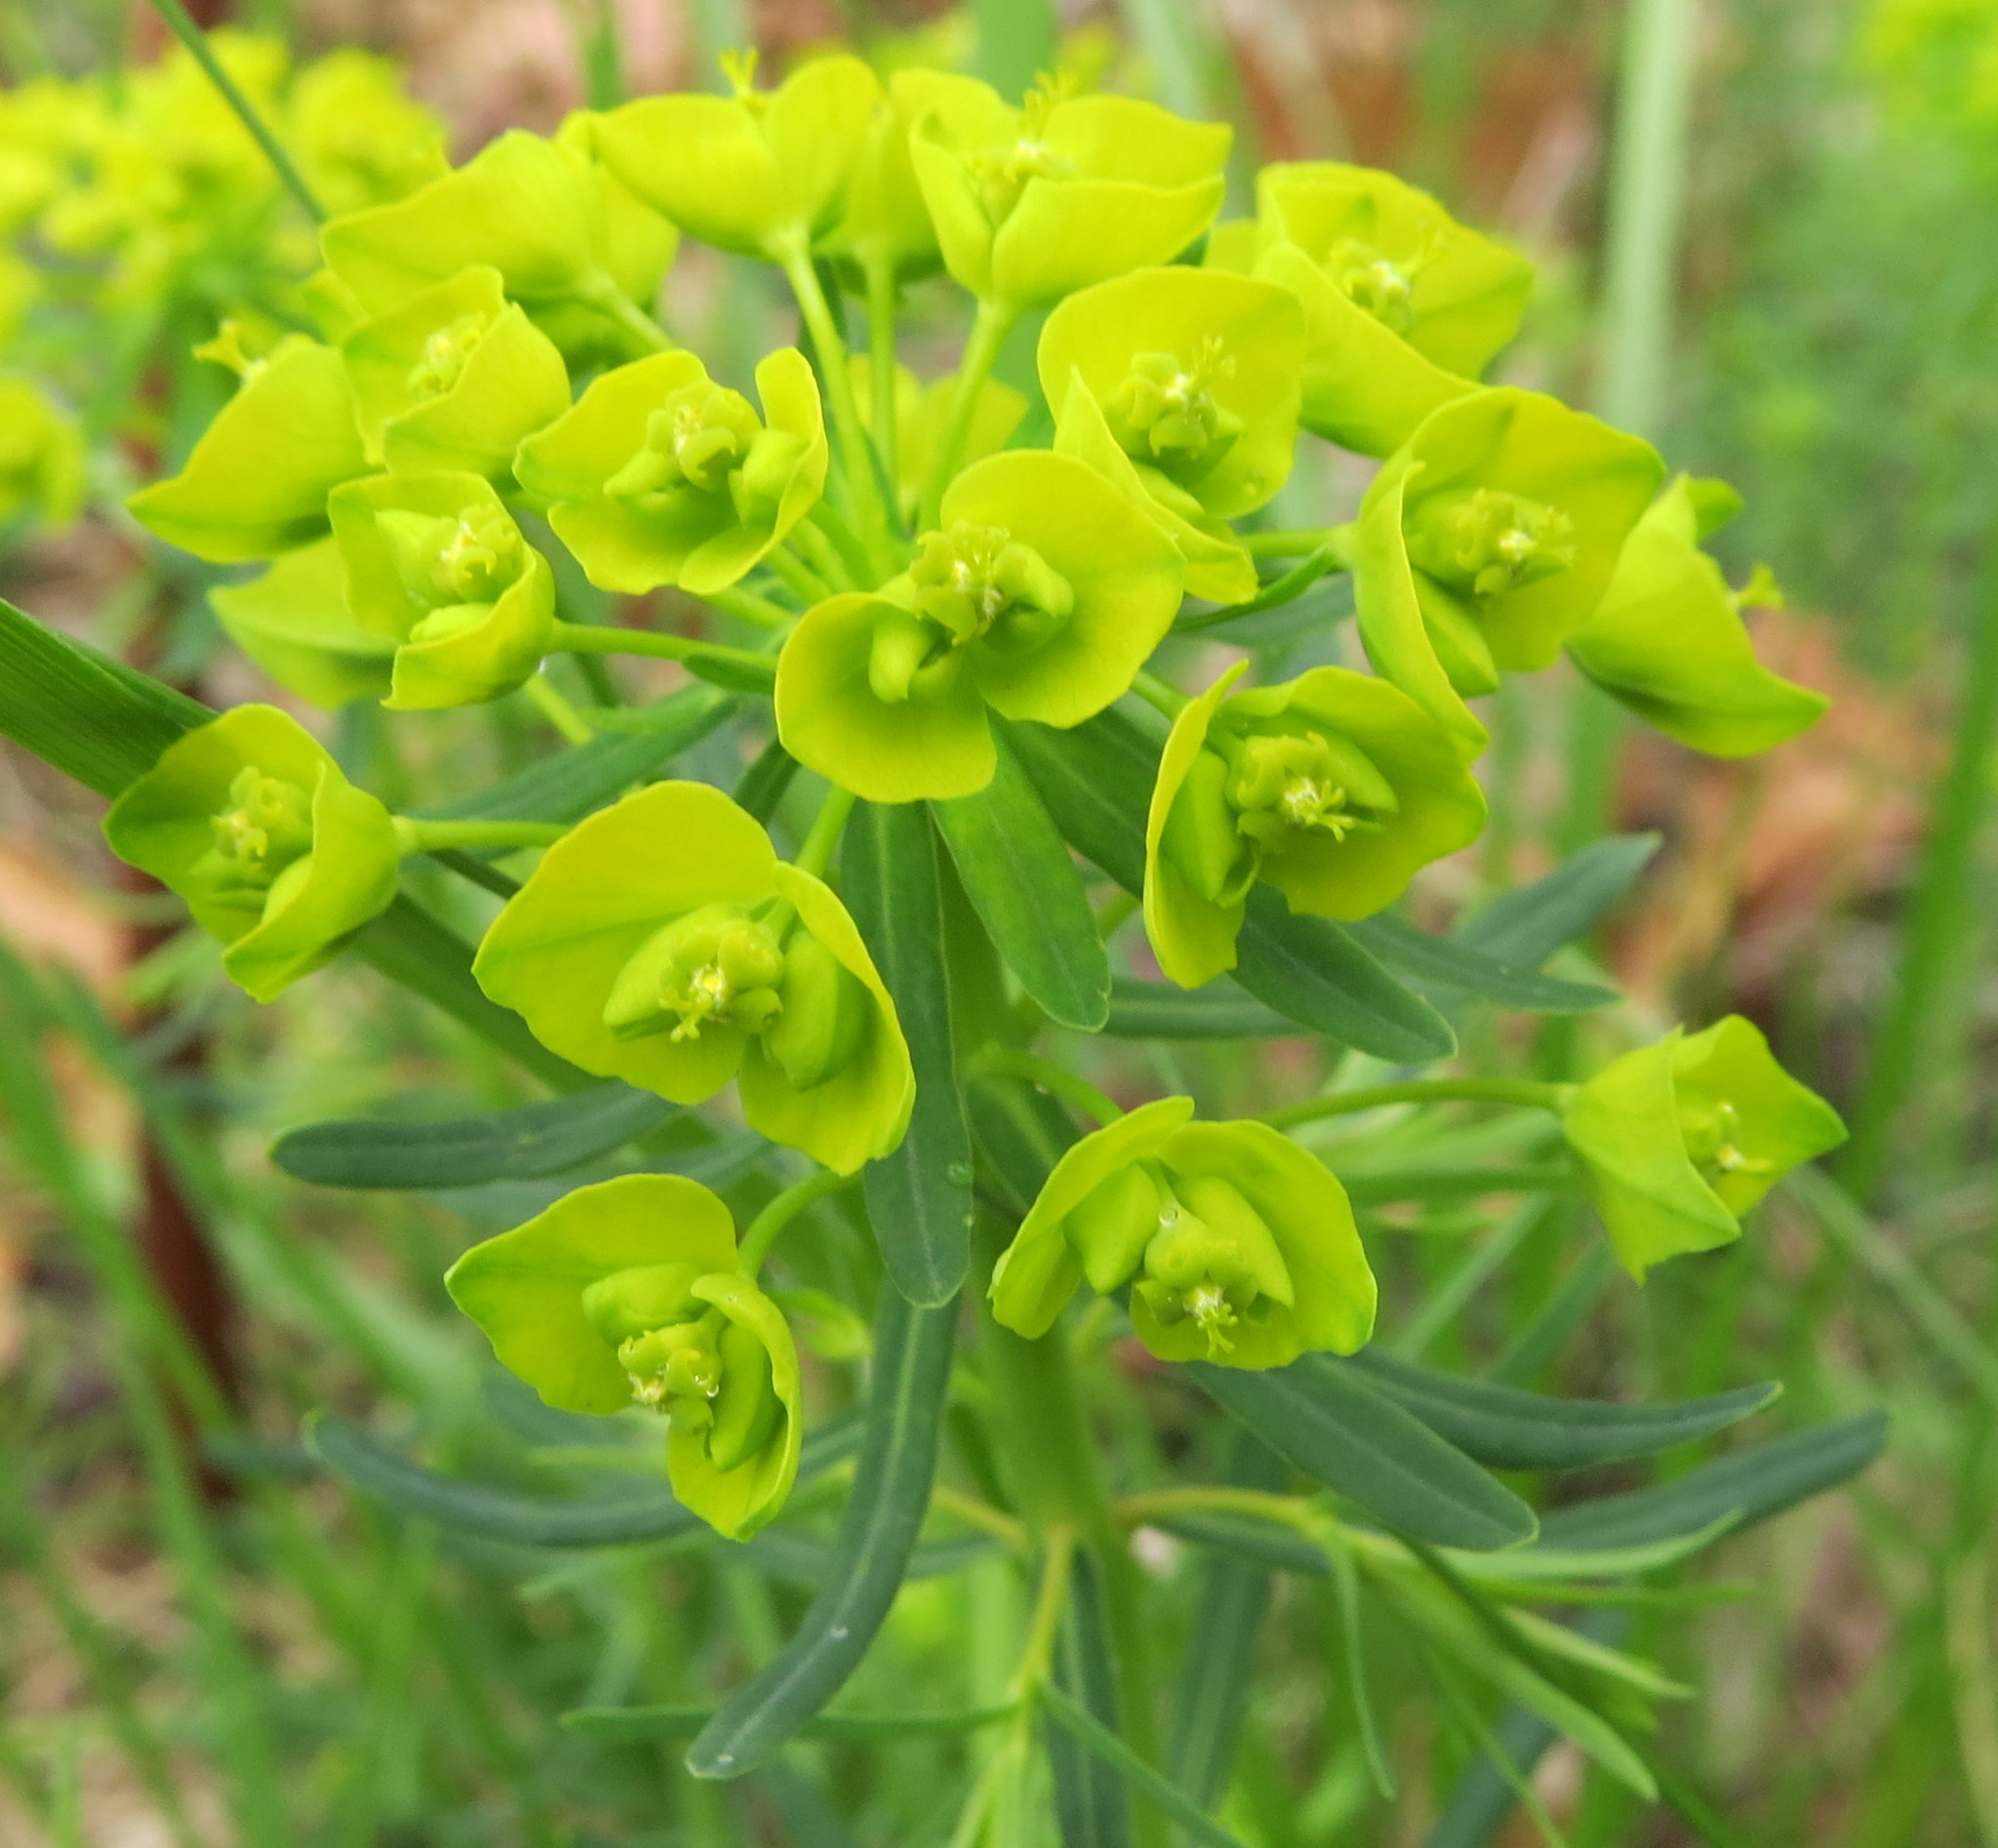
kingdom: Plantae
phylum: Tracheophyta
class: Magnoliopsida
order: Malpighiales
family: Euphorbiaceae
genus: Euphorbia
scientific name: Euphorbia cyparissias
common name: Cypress spurge
